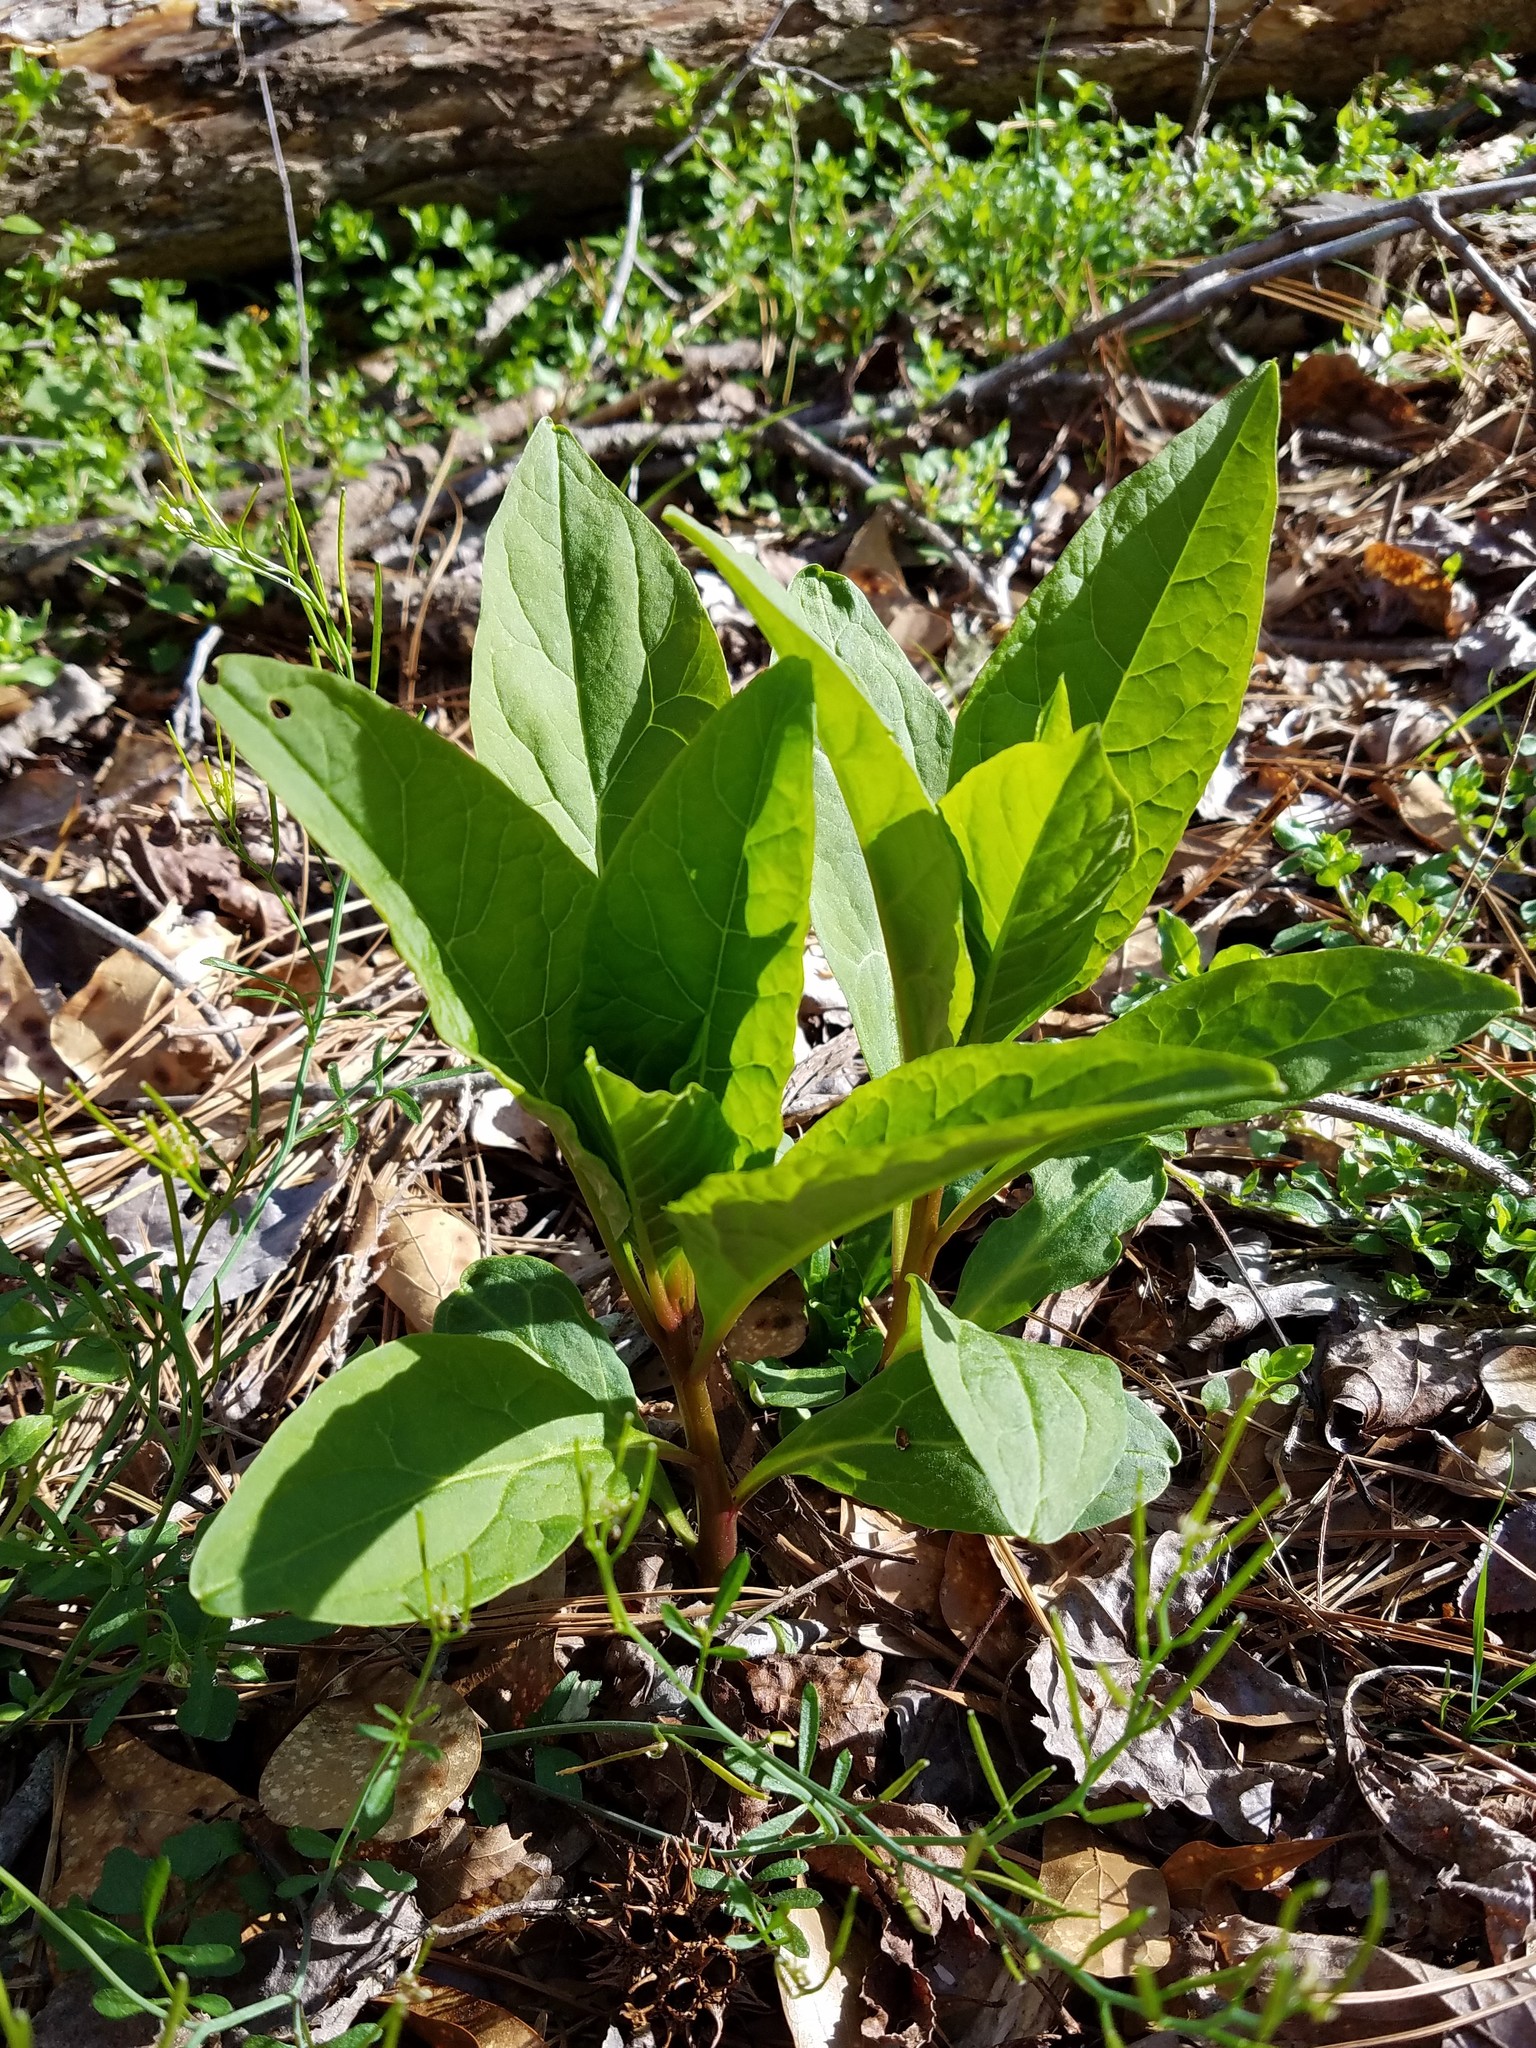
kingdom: Plantae
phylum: Tracheophyta
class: Magnoliopsida
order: Caryophyllales
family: Phytolaccaceae
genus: Phytolacca
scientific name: Phytolacca americana
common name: American pokeweed
